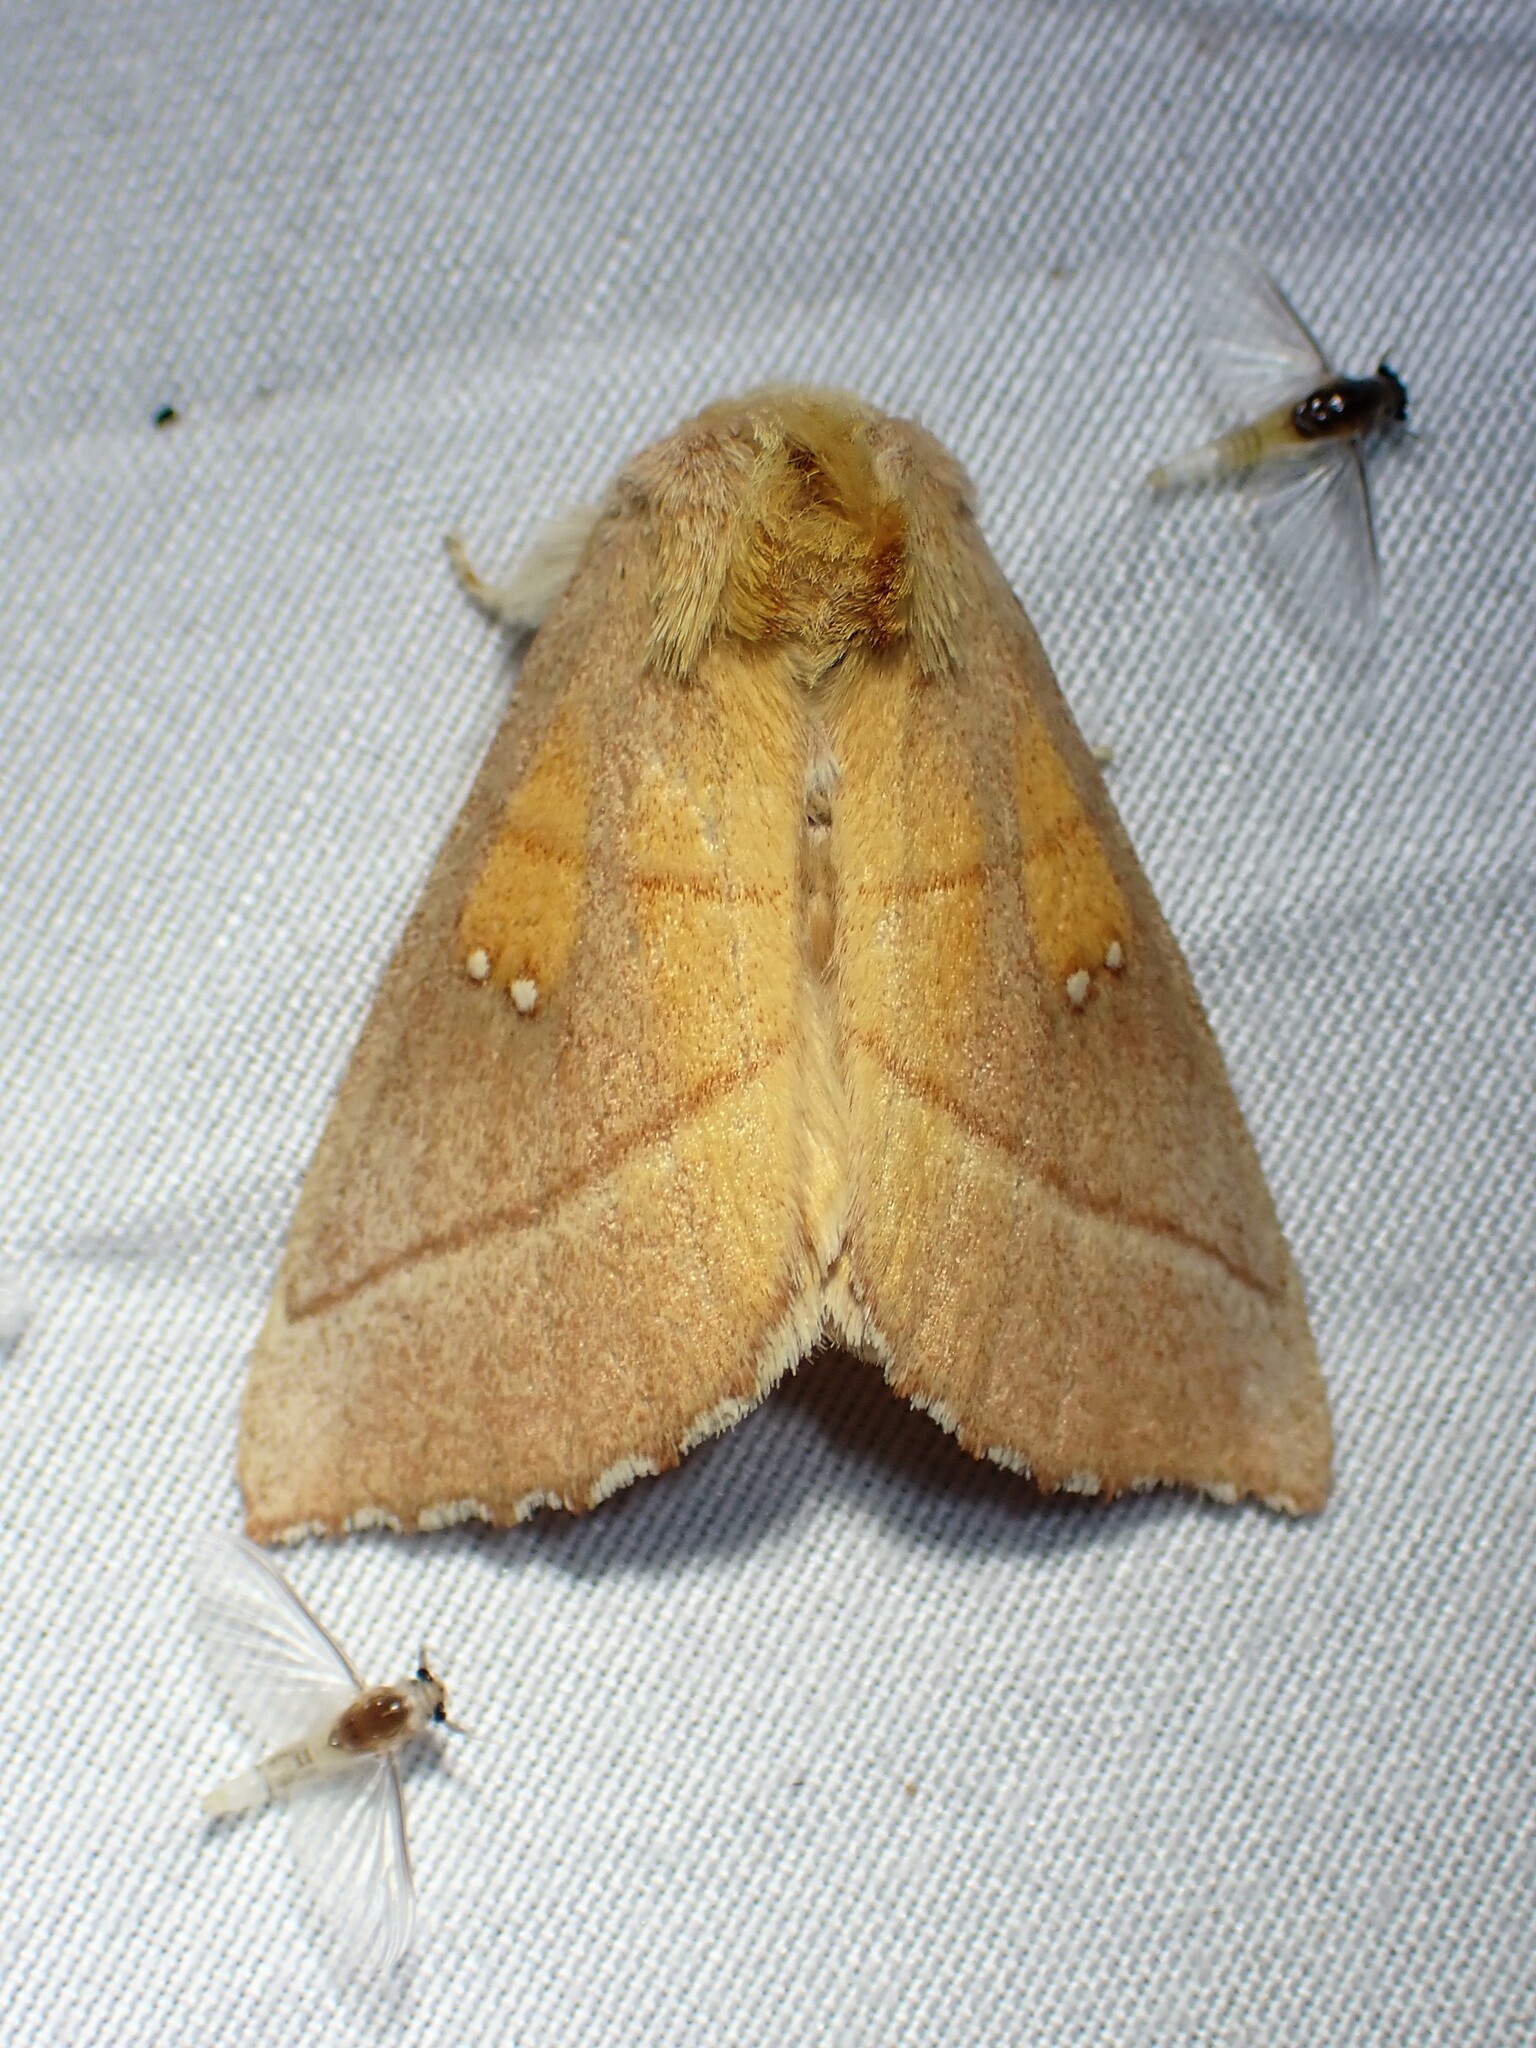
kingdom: Animalia
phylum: Arthropoda
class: Insecta
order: Lepidoptera
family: Notodontidae
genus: Nadata
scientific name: Nadata gibbosa
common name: White-dotted prominent
